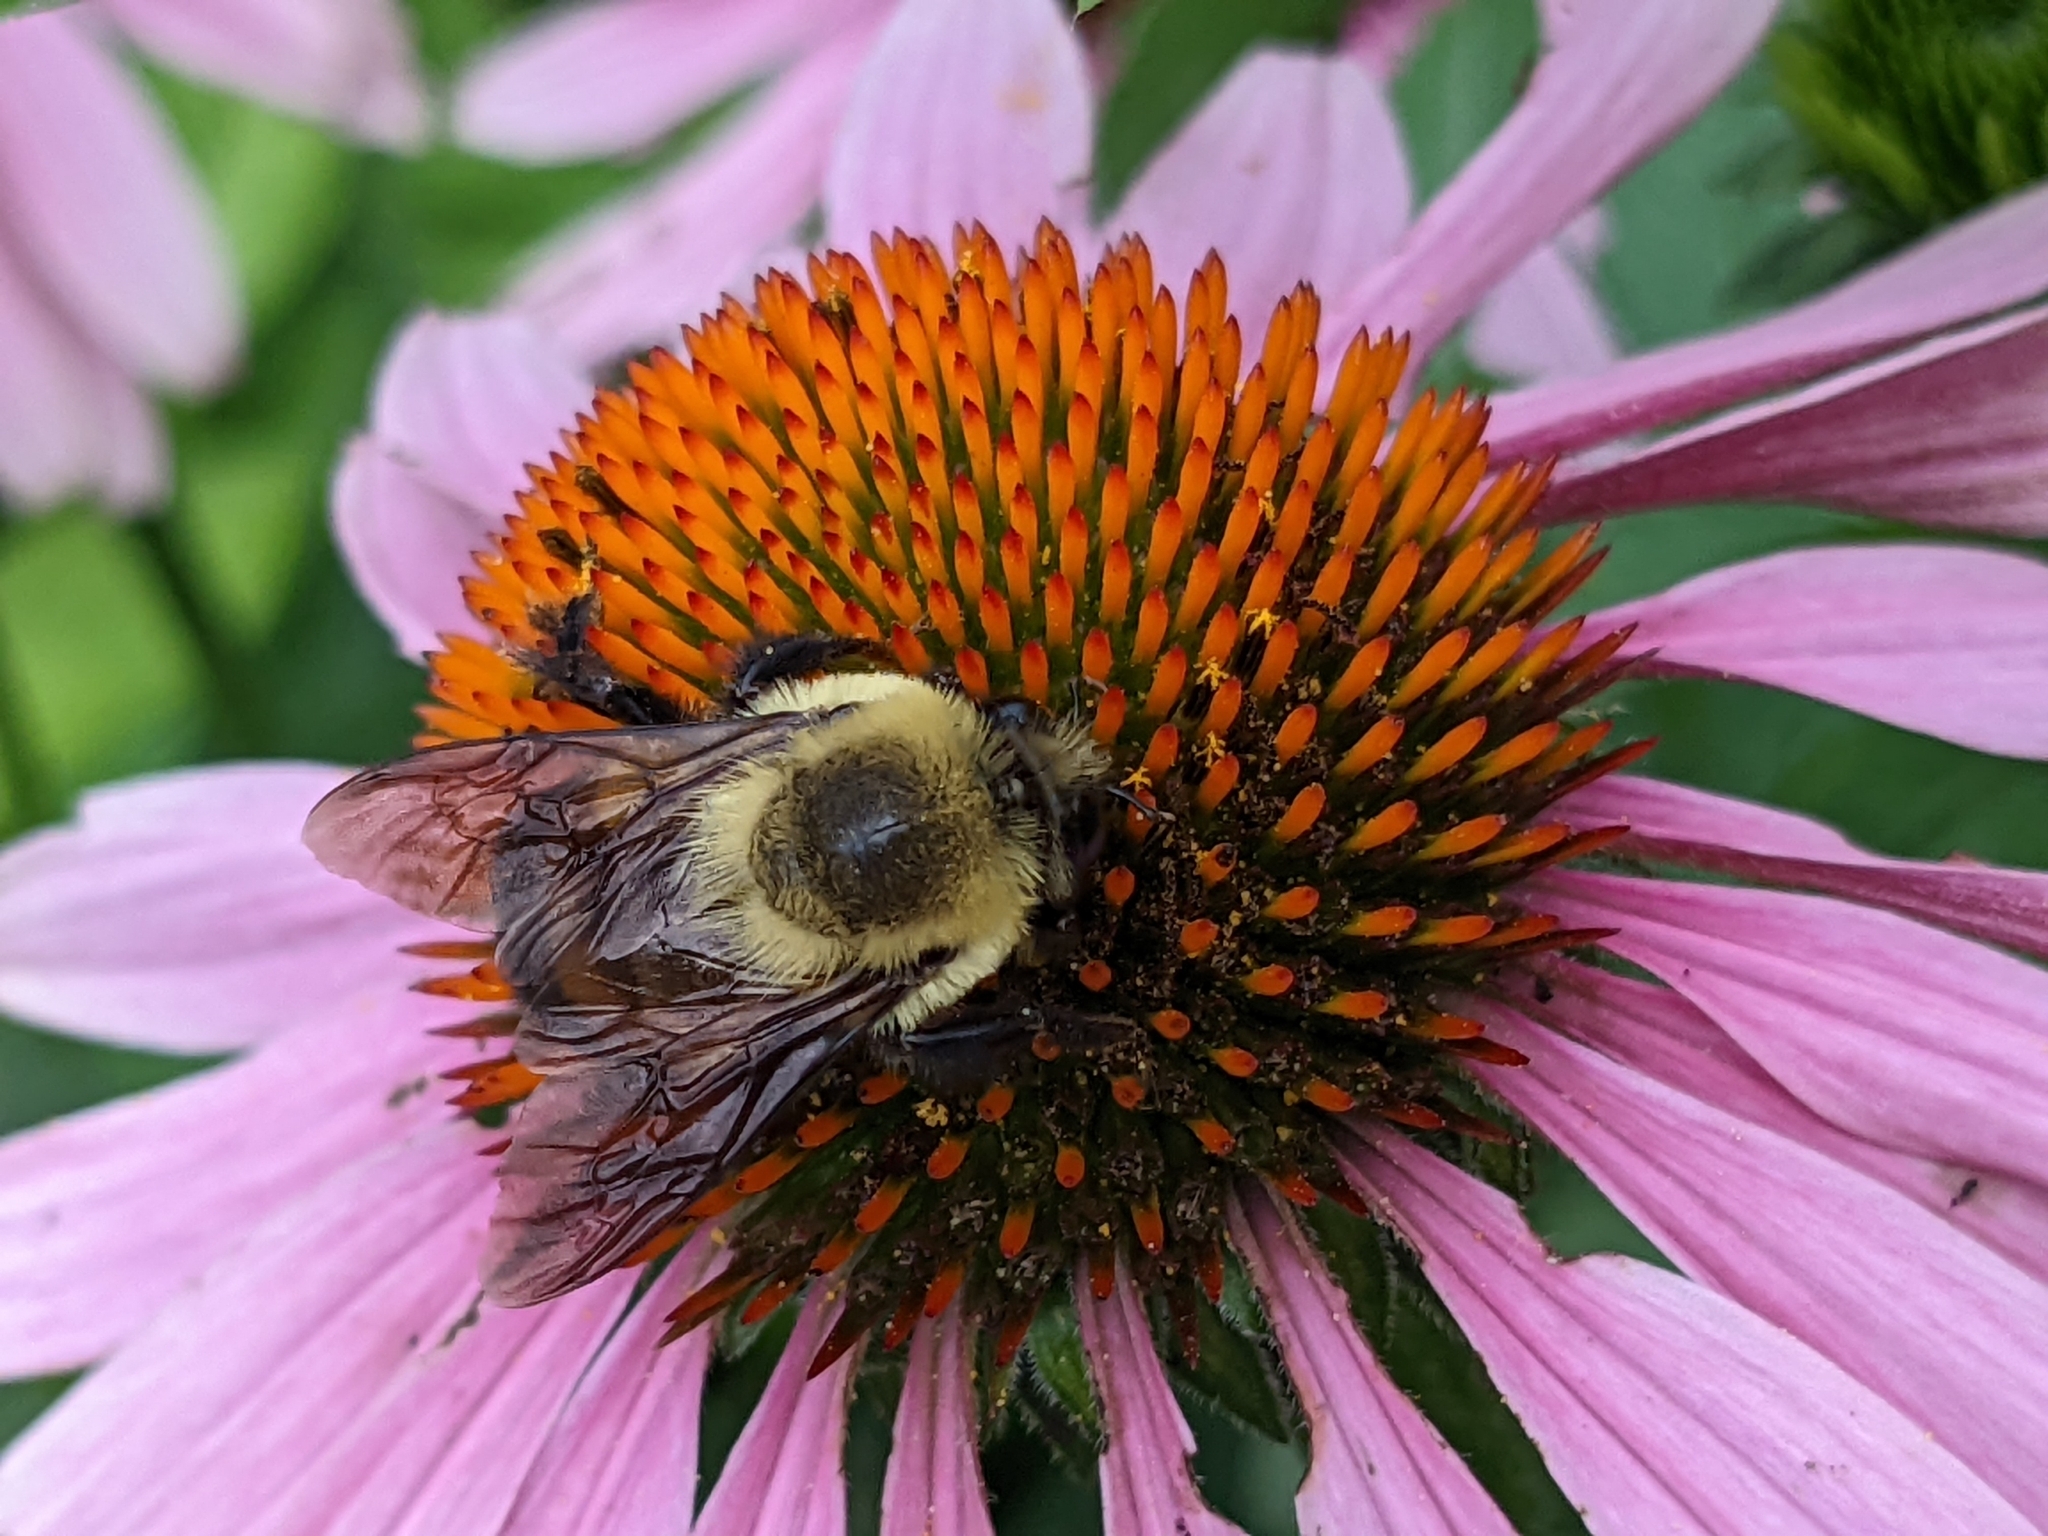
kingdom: Animalia
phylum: Arthropoda
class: Insecta
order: Hymenoptera
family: Apidae
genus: Bombus
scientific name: Bombus griseocollis
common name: Brown-belted bumble bee
